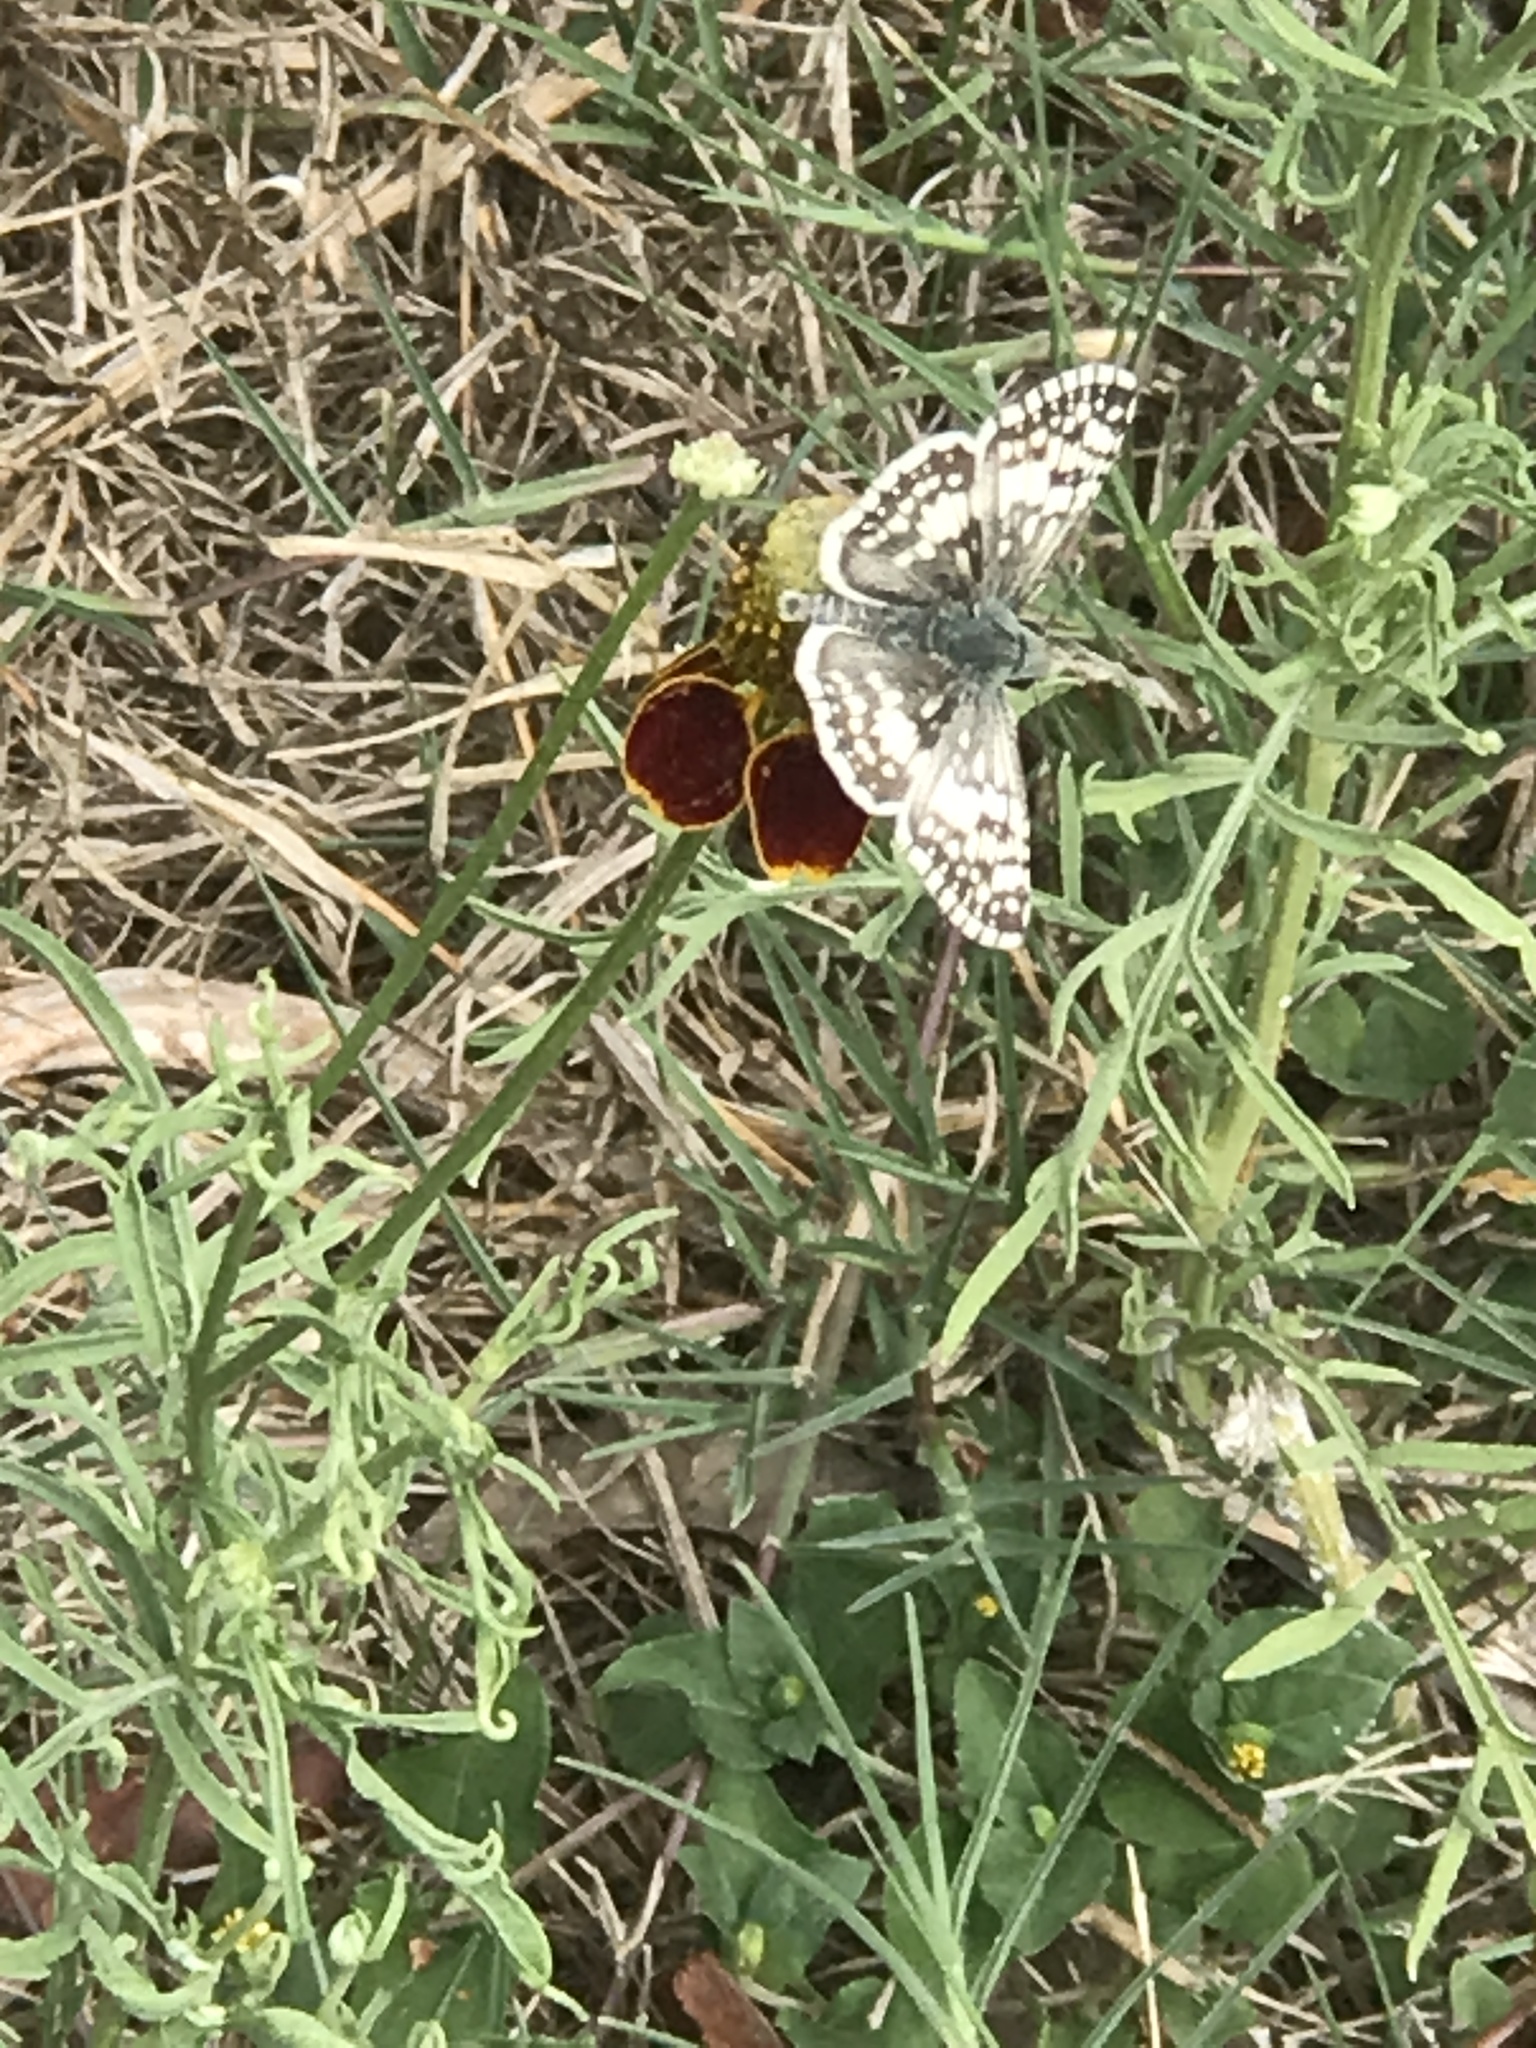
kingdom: Animalia
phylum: Arthropoda
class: Insecta
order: Lepidoptera
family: Hesperiidae
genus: Burnsius
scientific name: Burnsius
